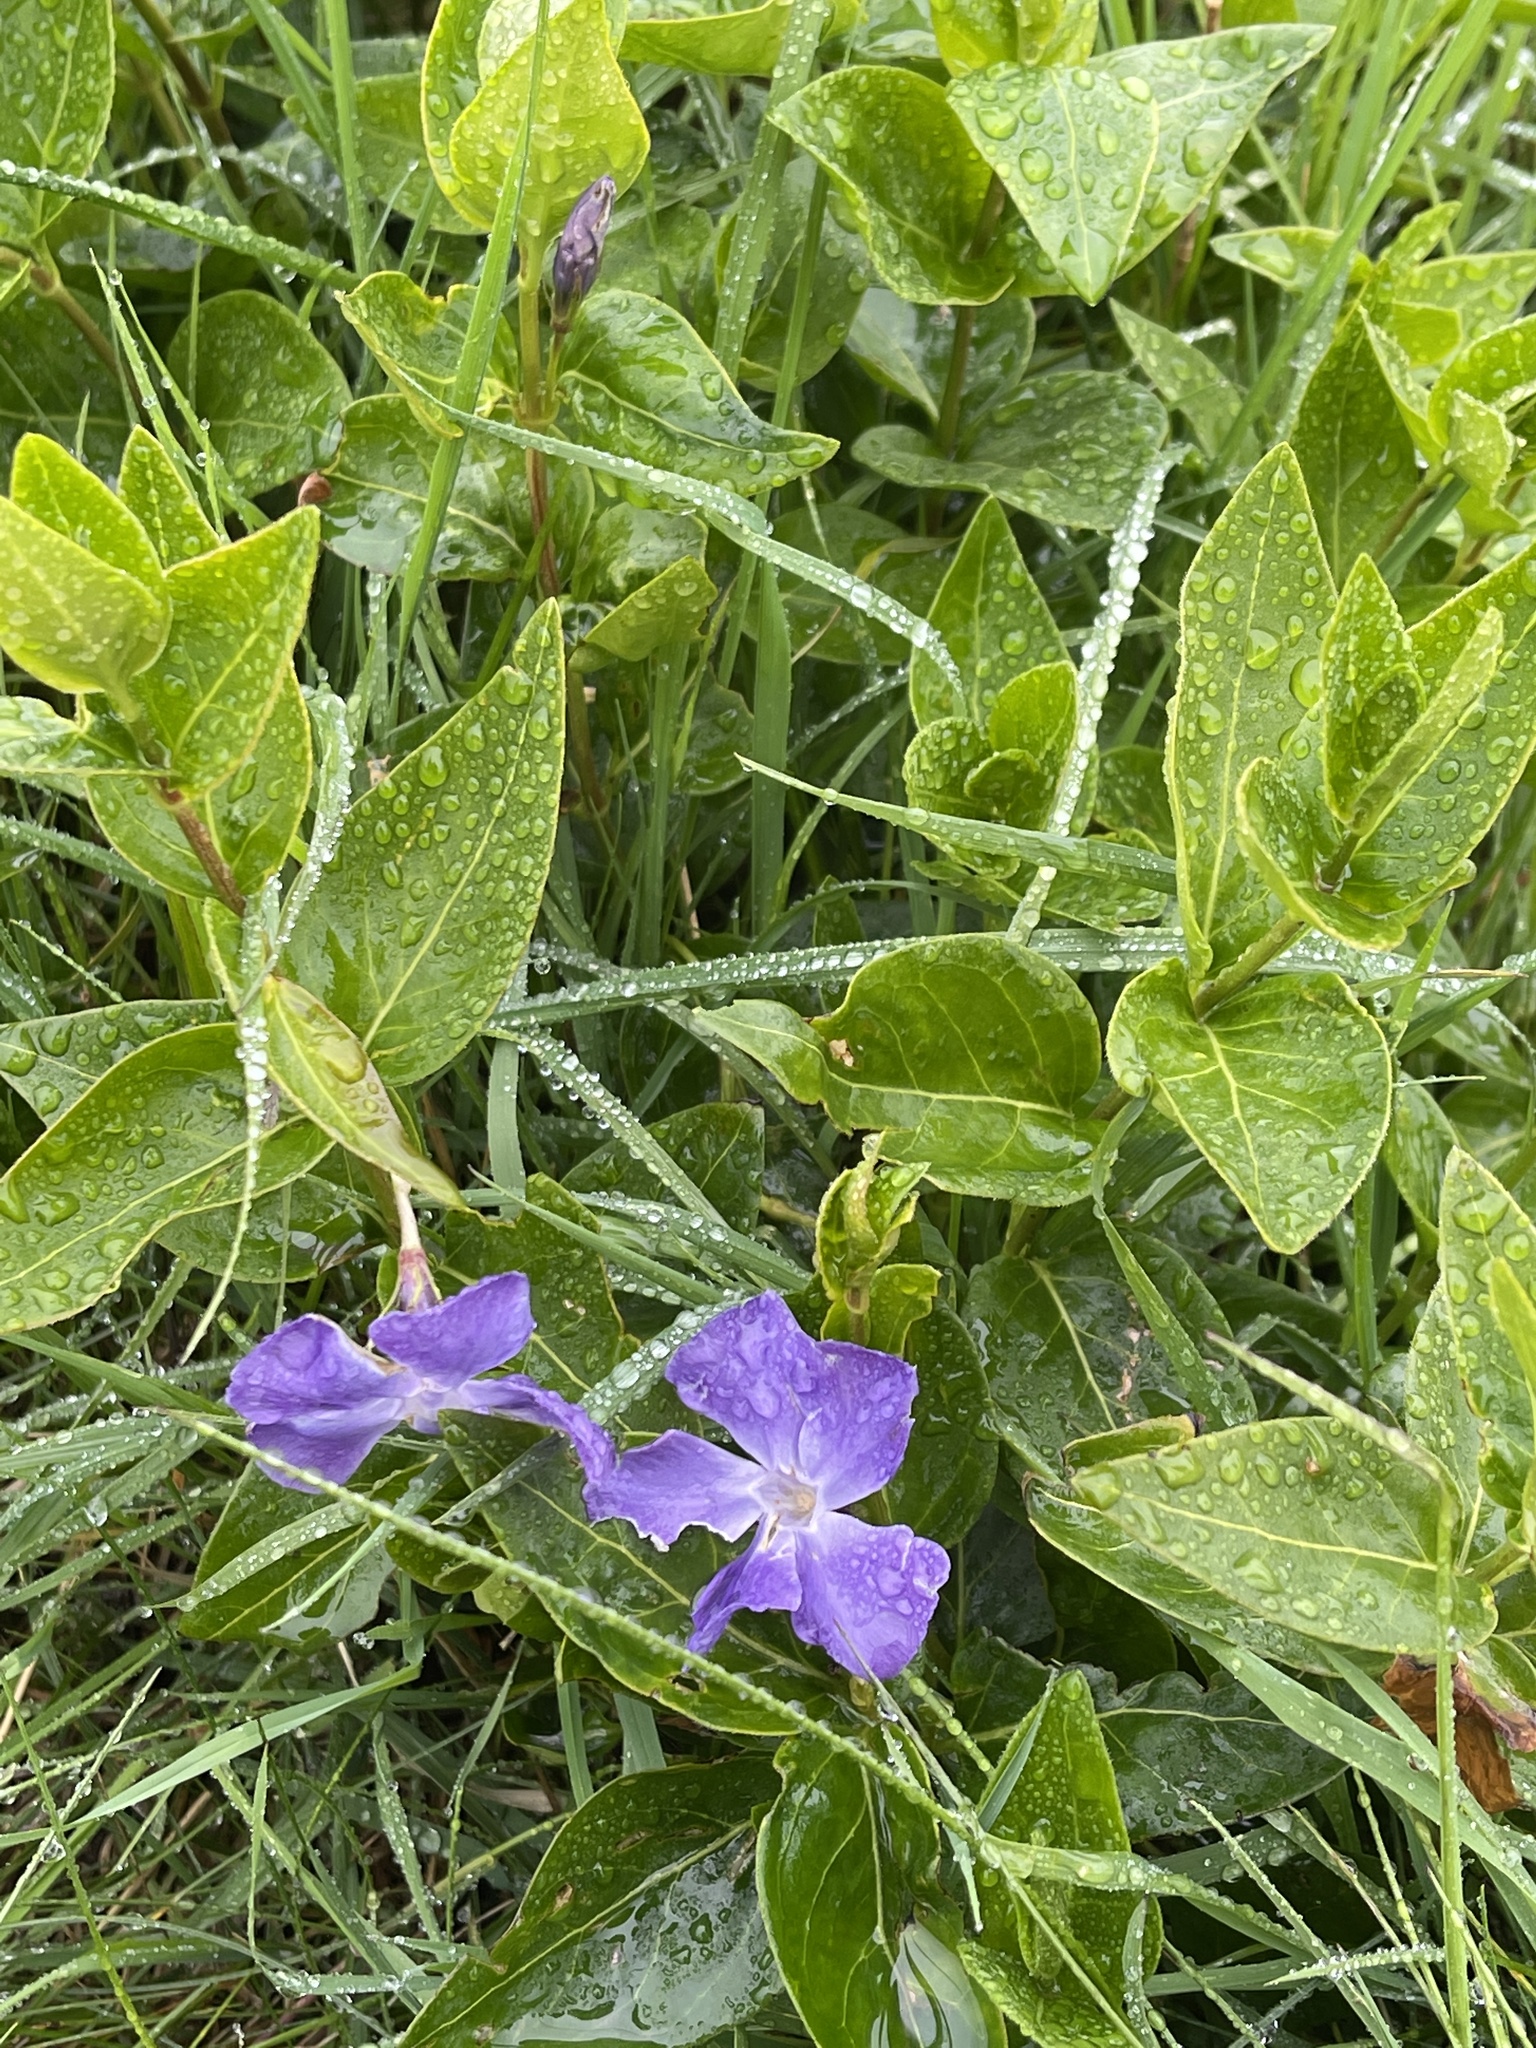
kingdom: Plantae
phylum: Tracheophyta
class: Magnoliopsida
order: Gentianales
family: Apocynaceae
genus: Vinca
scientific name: Vinca major
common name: Greater periwinkle
